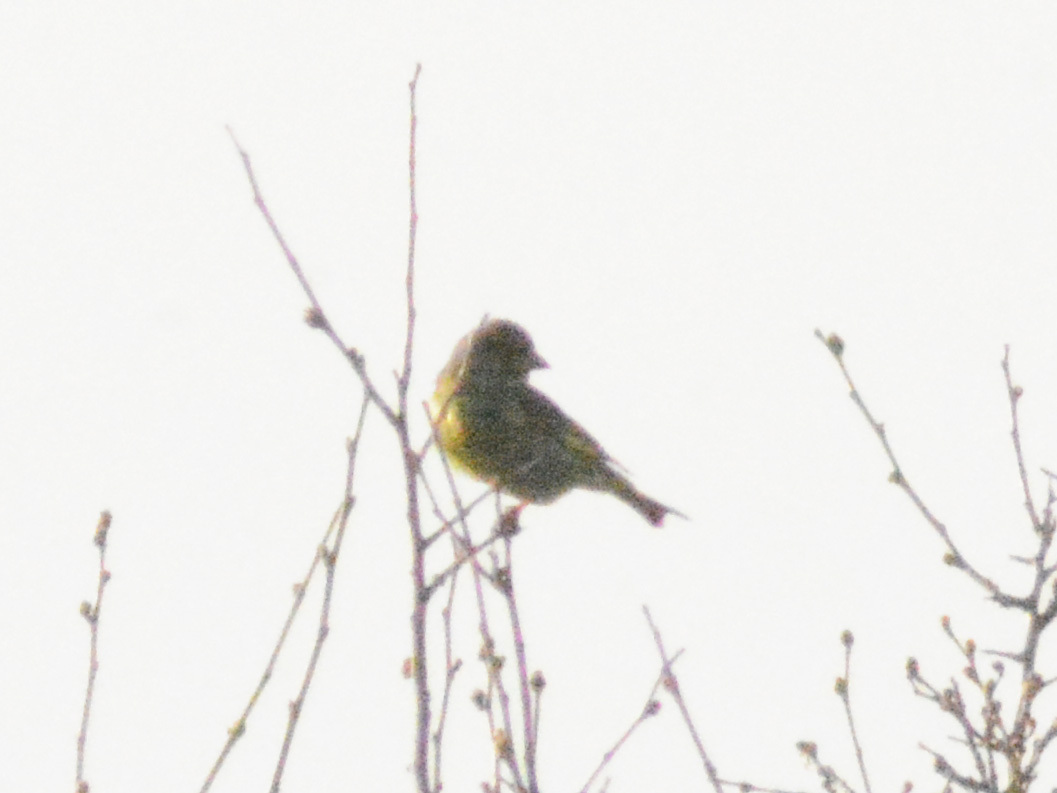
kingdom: Plantae
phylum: Tracheophyta
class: Liliopsida
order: Poales
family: Poaceae
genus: Chloris
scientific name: Chloris chloris
